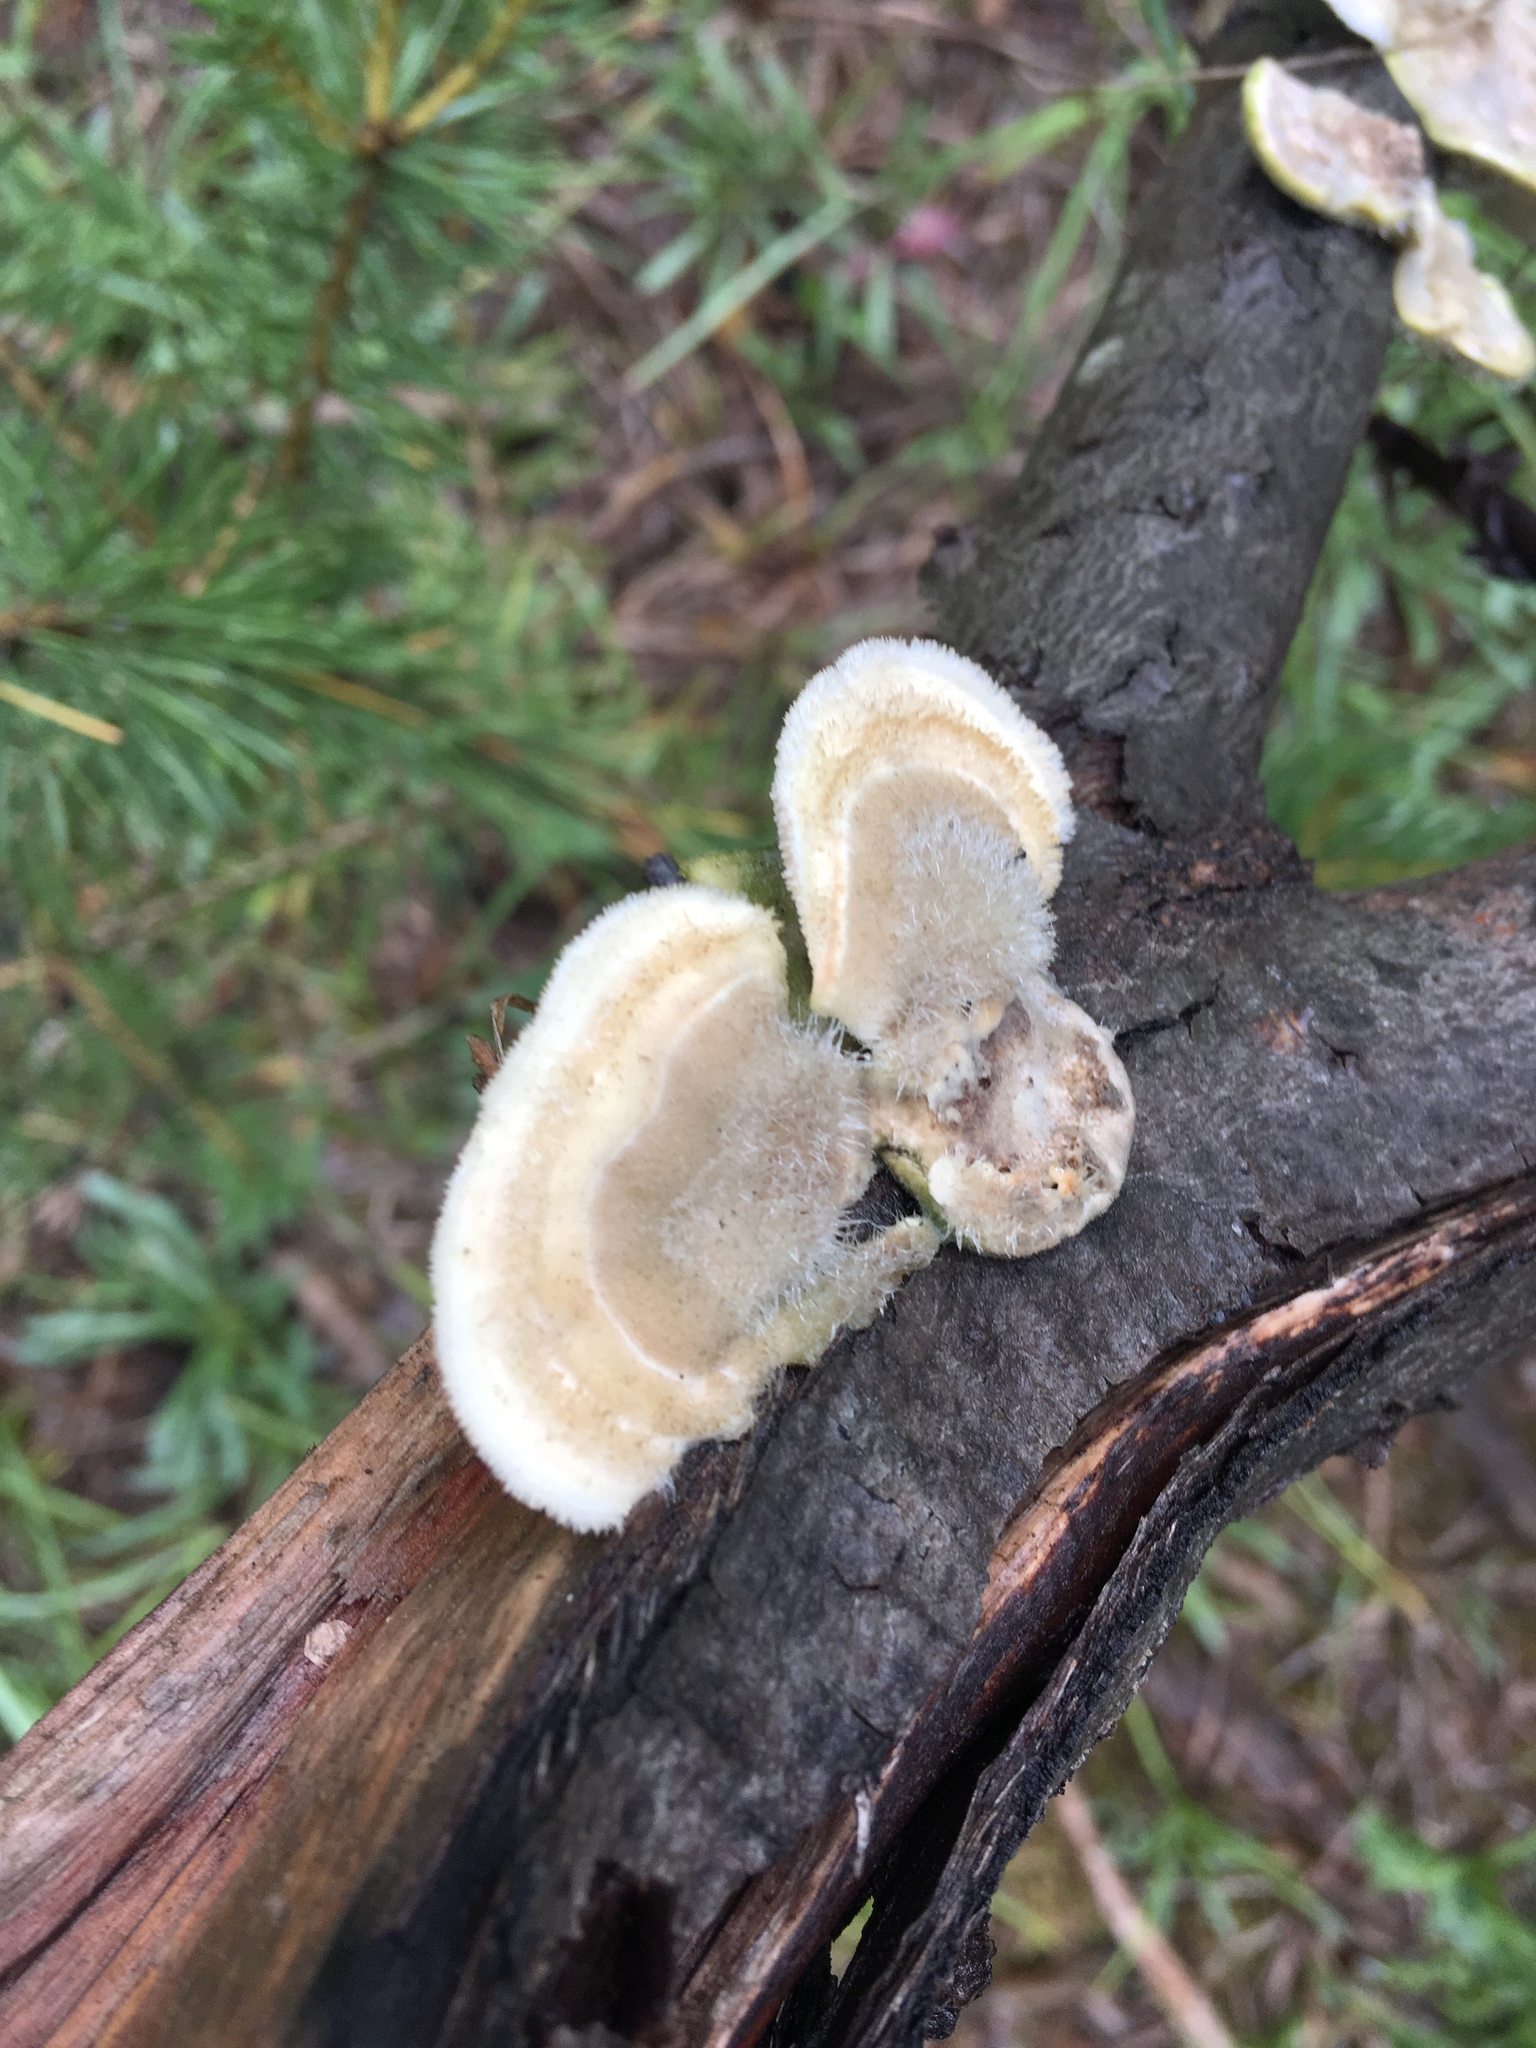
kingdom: Fungi
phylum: Basidiomycota
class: Agaricomycetes
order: Polyporales
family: Polyporaceae
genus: Trametes
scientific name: Trametes hirsuta
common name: Hairy bracket
